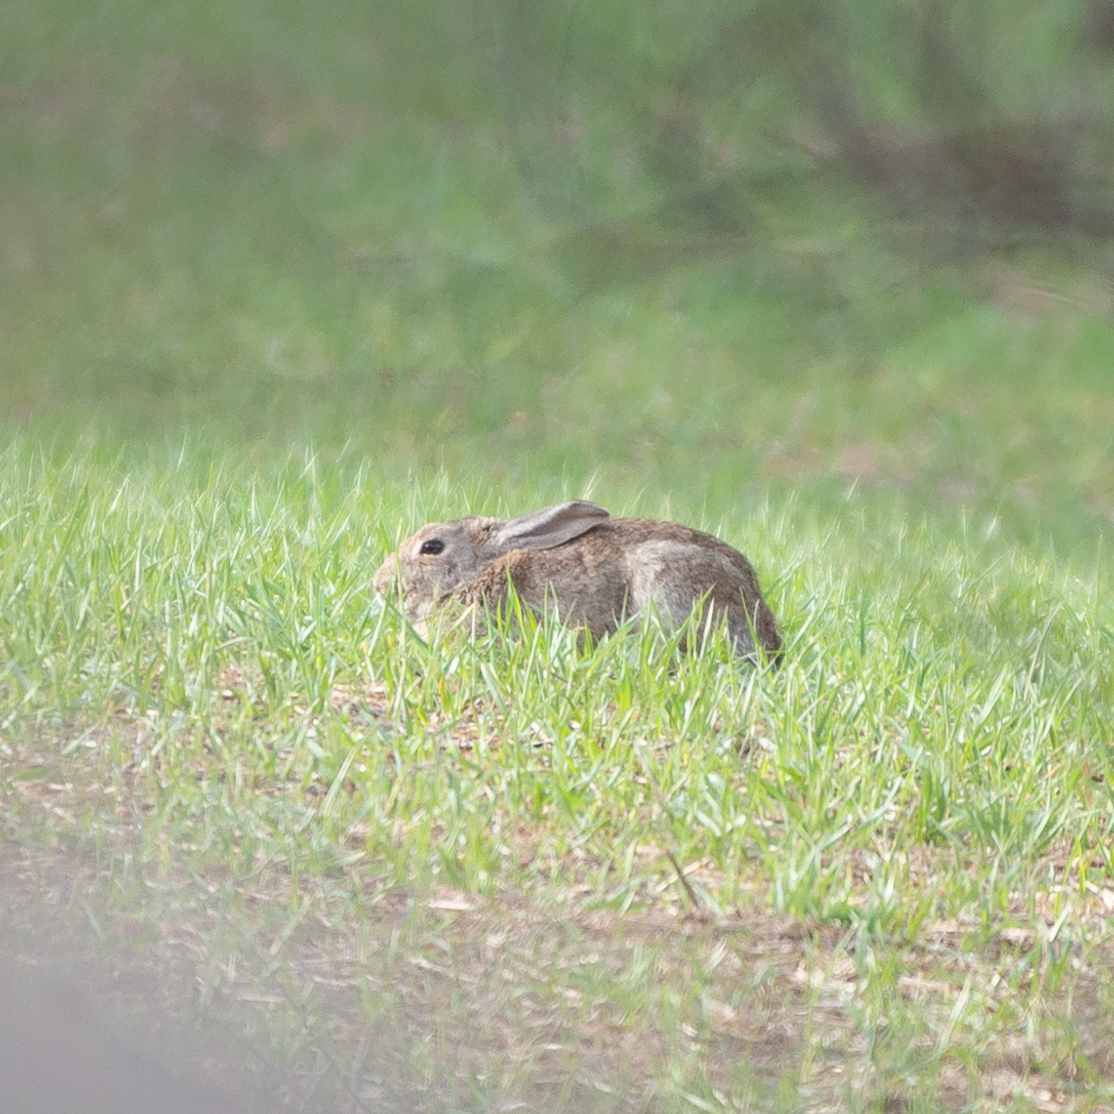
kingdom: Animalia
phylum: Chordata
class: Mammalia
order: Lagomorpha
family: Leporidae
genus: Oryctolagus
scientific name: Oryctolagus cuniculus
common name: European rabbit
